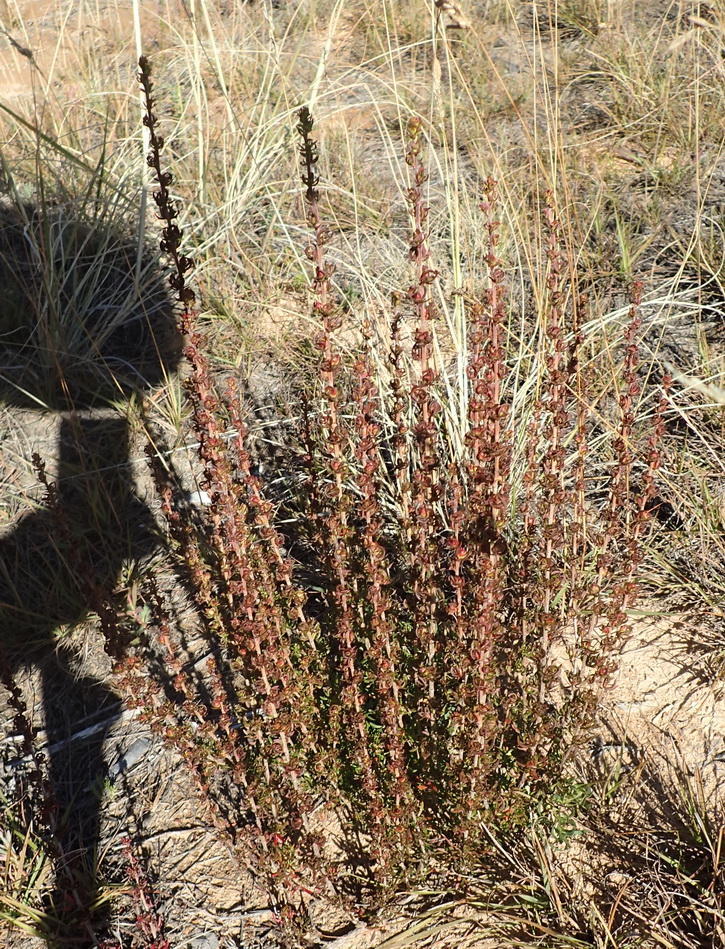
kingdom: Plantae
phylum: Tracheophyta
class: Magnoliopsida
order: Rosales
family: Rosaceae
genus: Cliffortia
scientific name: Cliffortia arcuata
